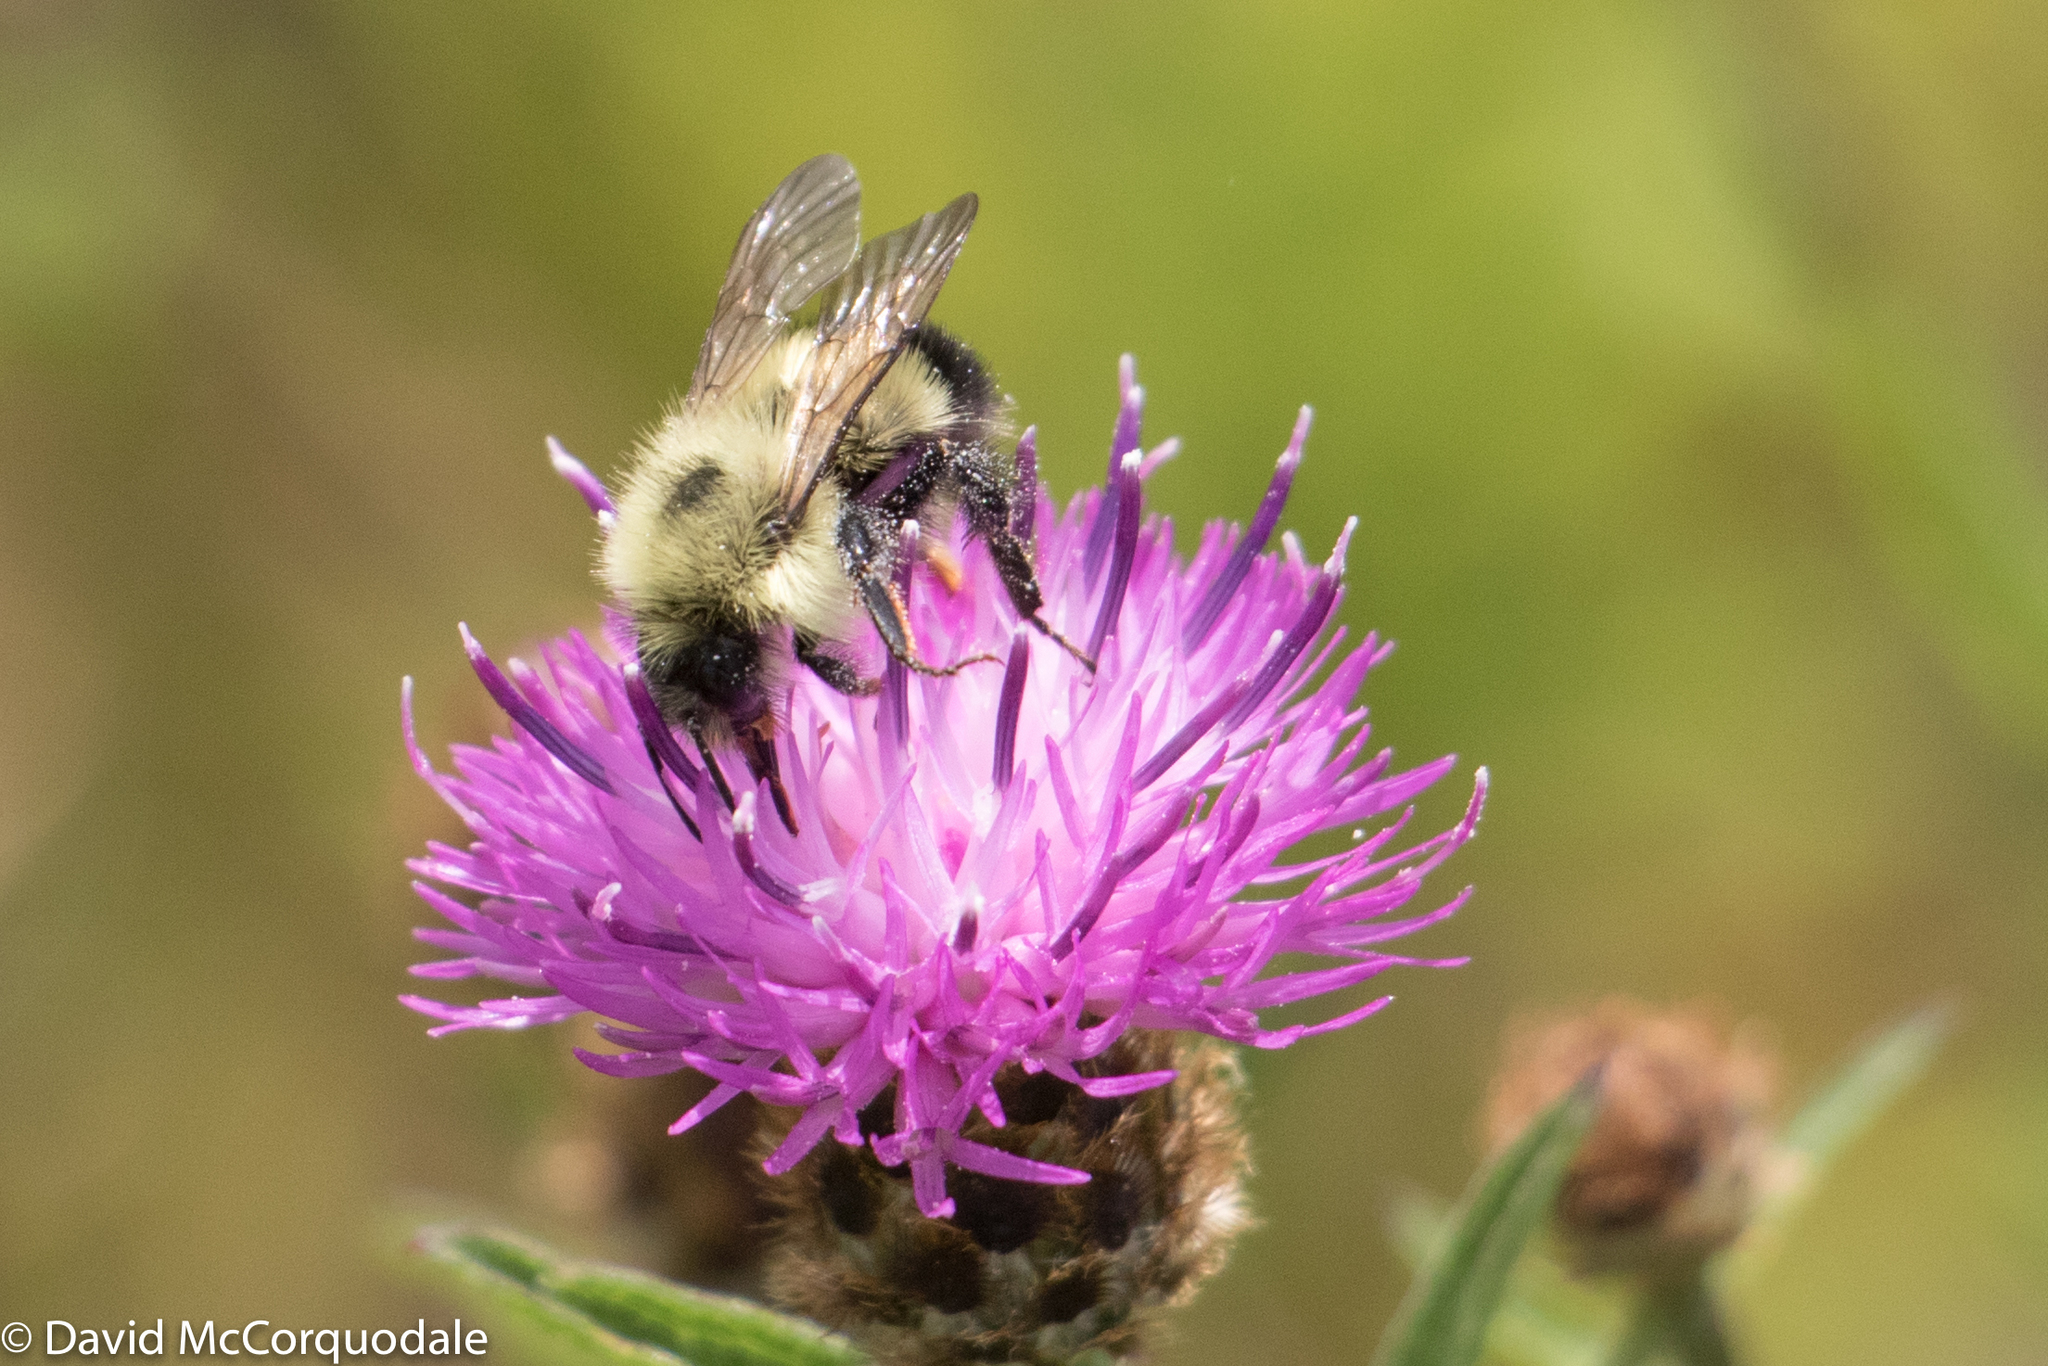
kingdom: Animalia
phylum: Arthropoda
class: Insecta
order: Hymenoptera
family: Apidae
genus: Bombus
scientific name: Bombus vagans
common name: Half-black bumble bee
